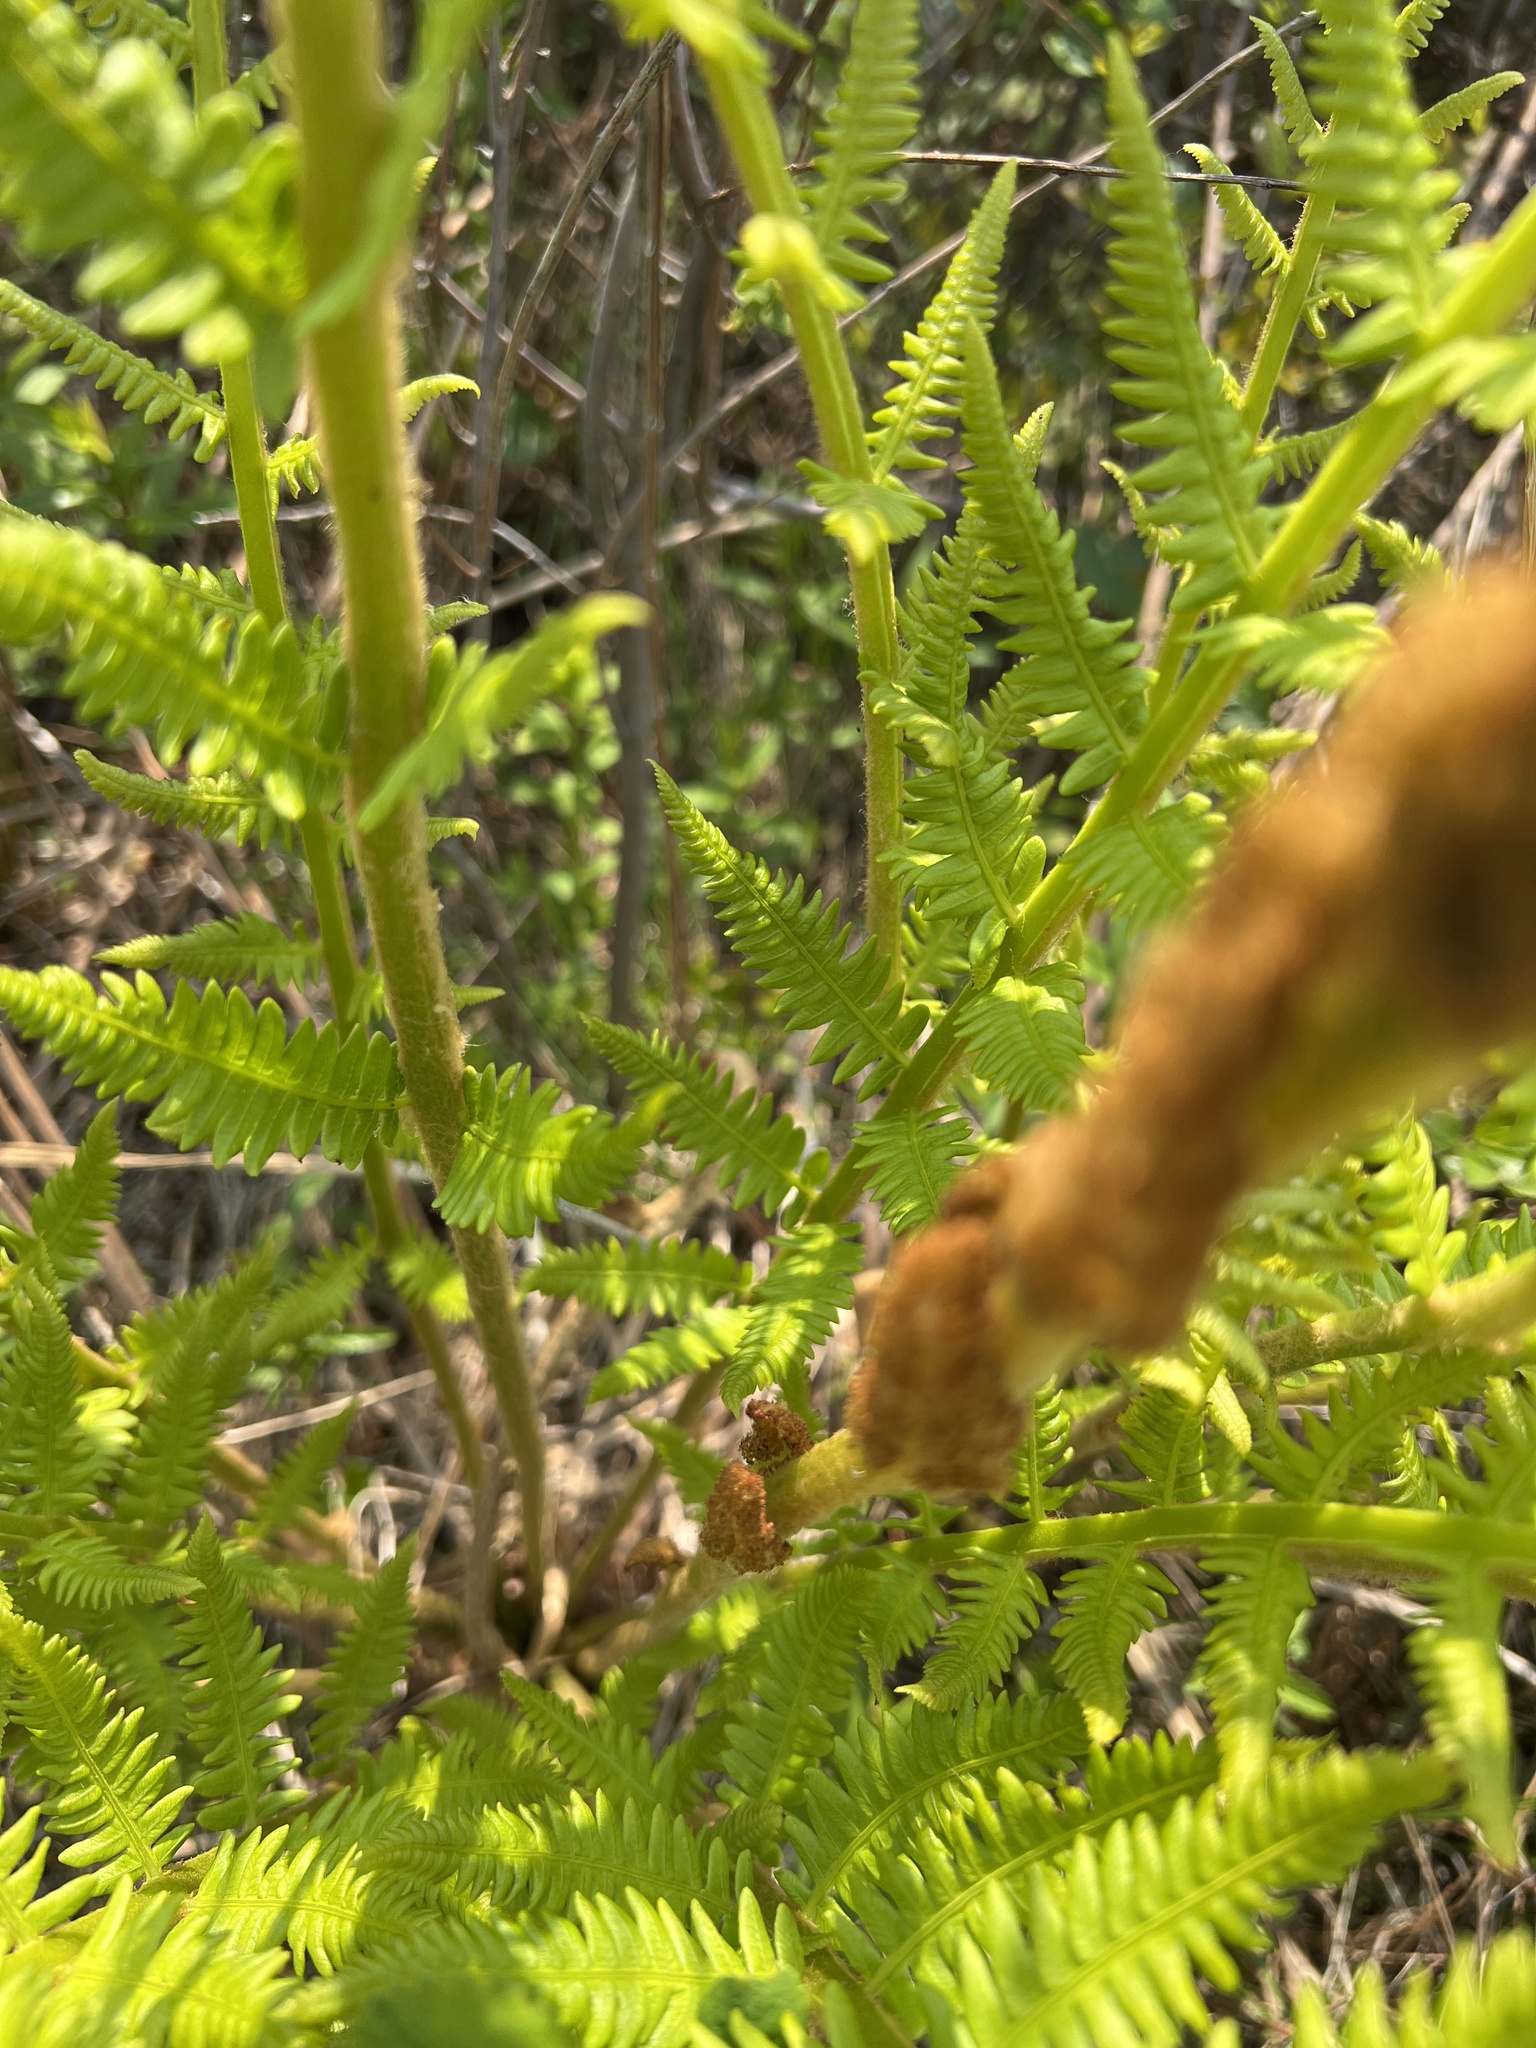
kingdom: Plantae
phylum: Tracheophyta
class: Polypodiopsida
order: Osmundales
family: Osmundaceae
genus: Osmundastrum
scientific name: Osmundastrum cinnamomeum
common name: Cinnamon fern
